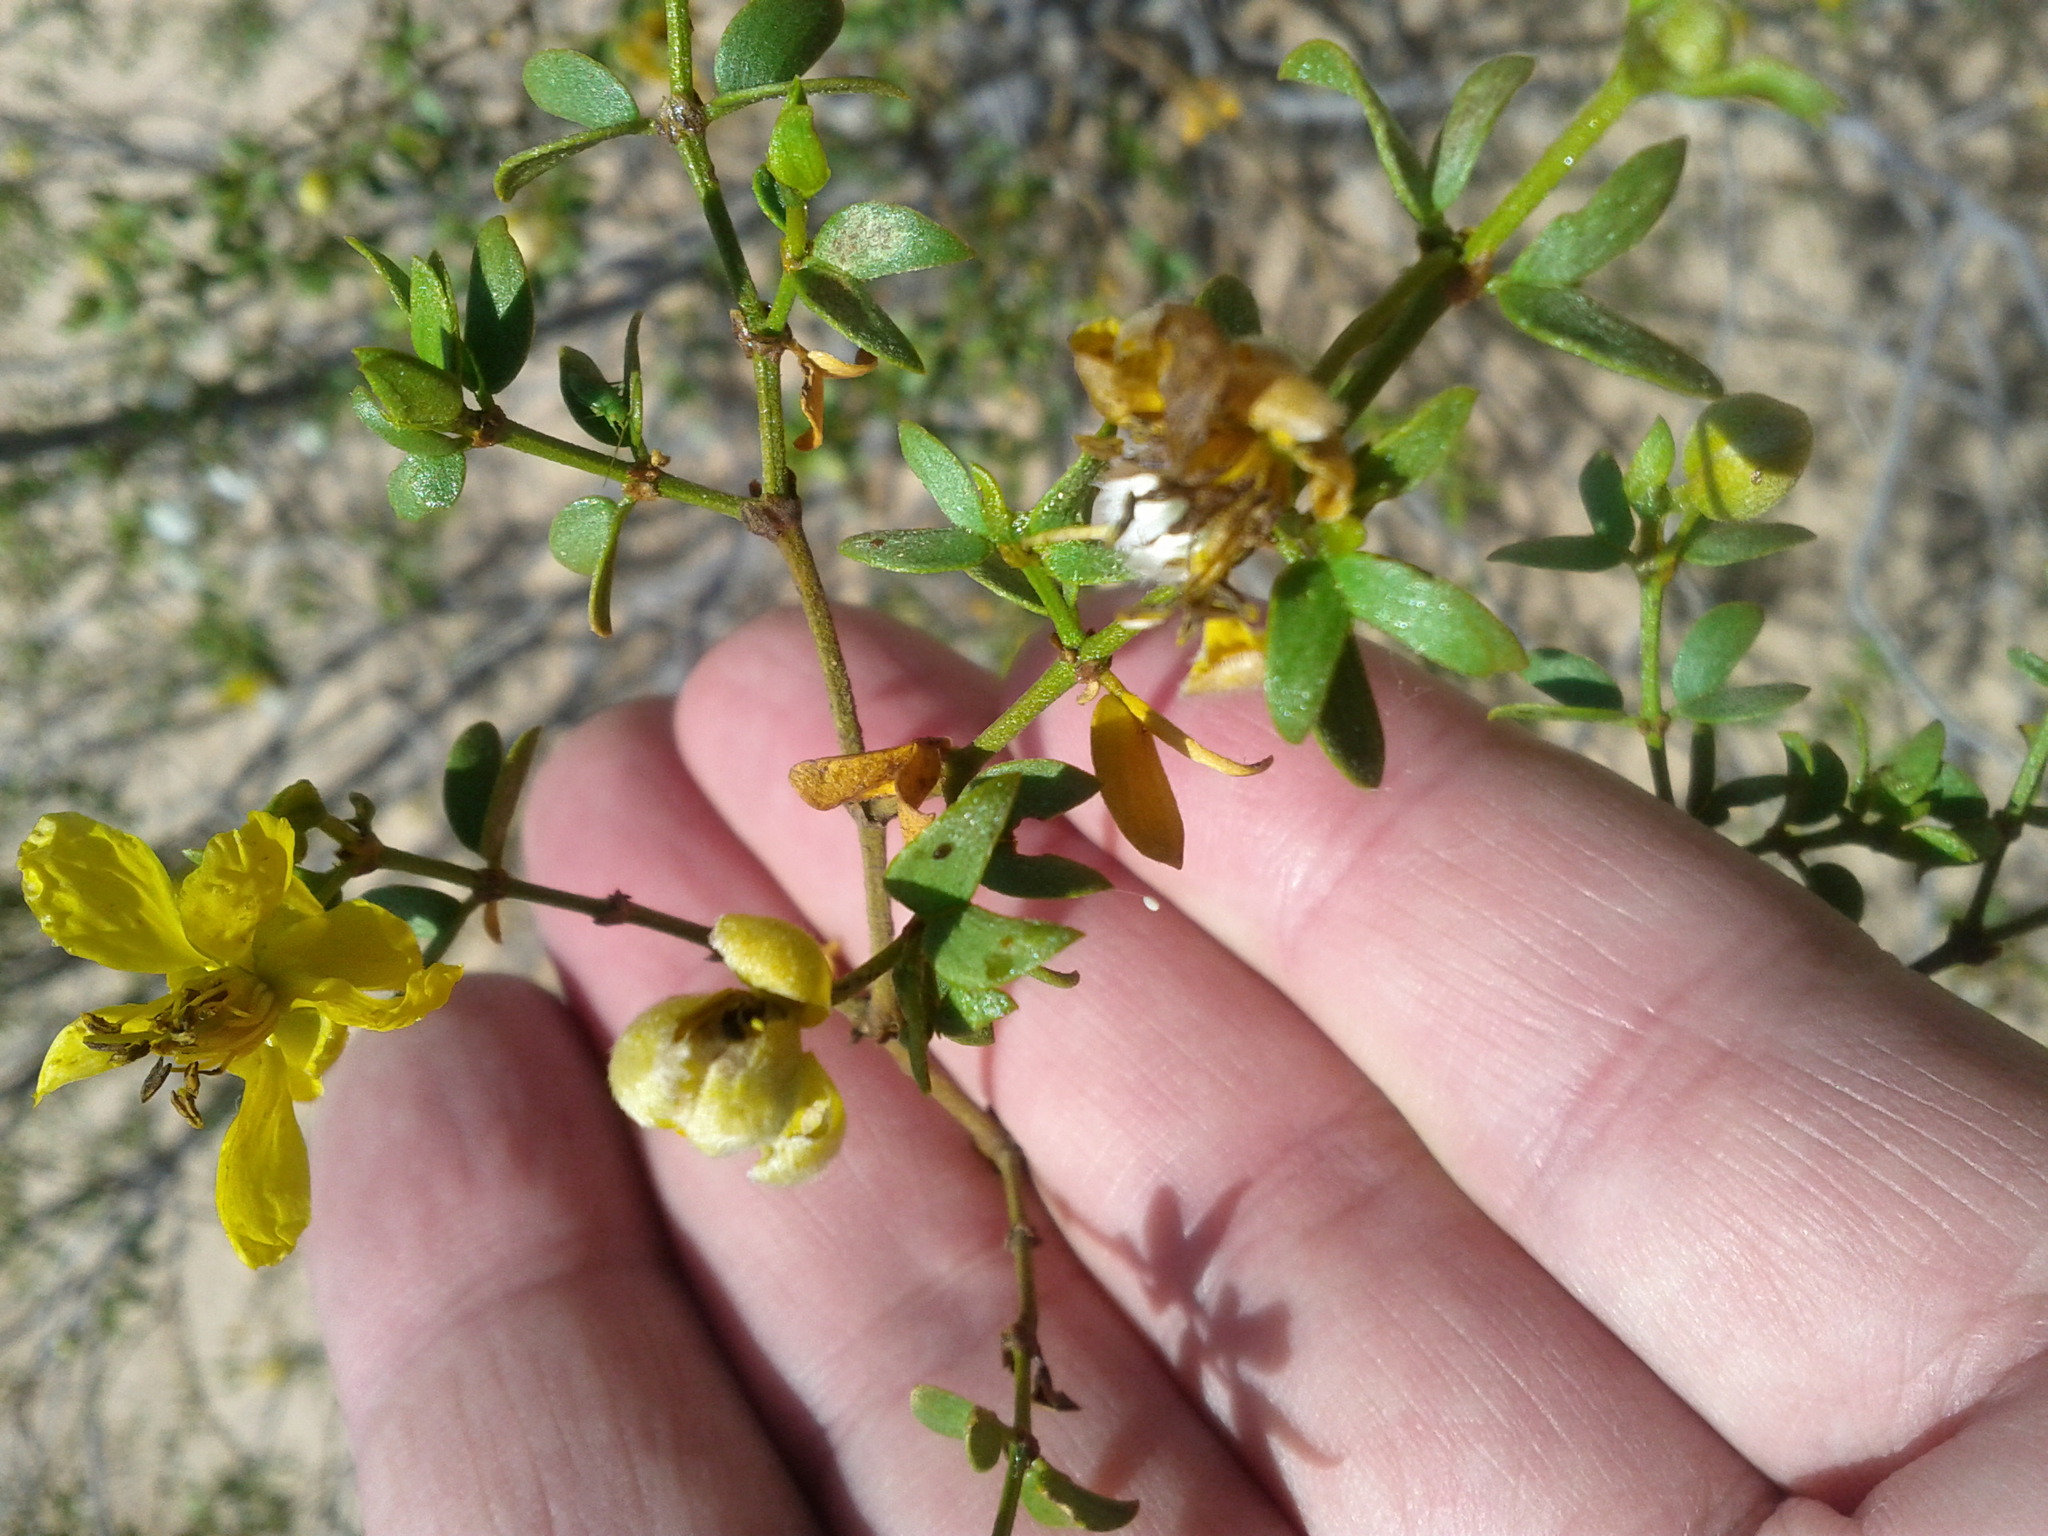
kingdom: Plantae
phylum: Tracheophyta
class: Magnoliopsida
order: Zygophyllales
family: Zygophyllaceae
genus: Larrea
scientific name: Larrea tridentata
